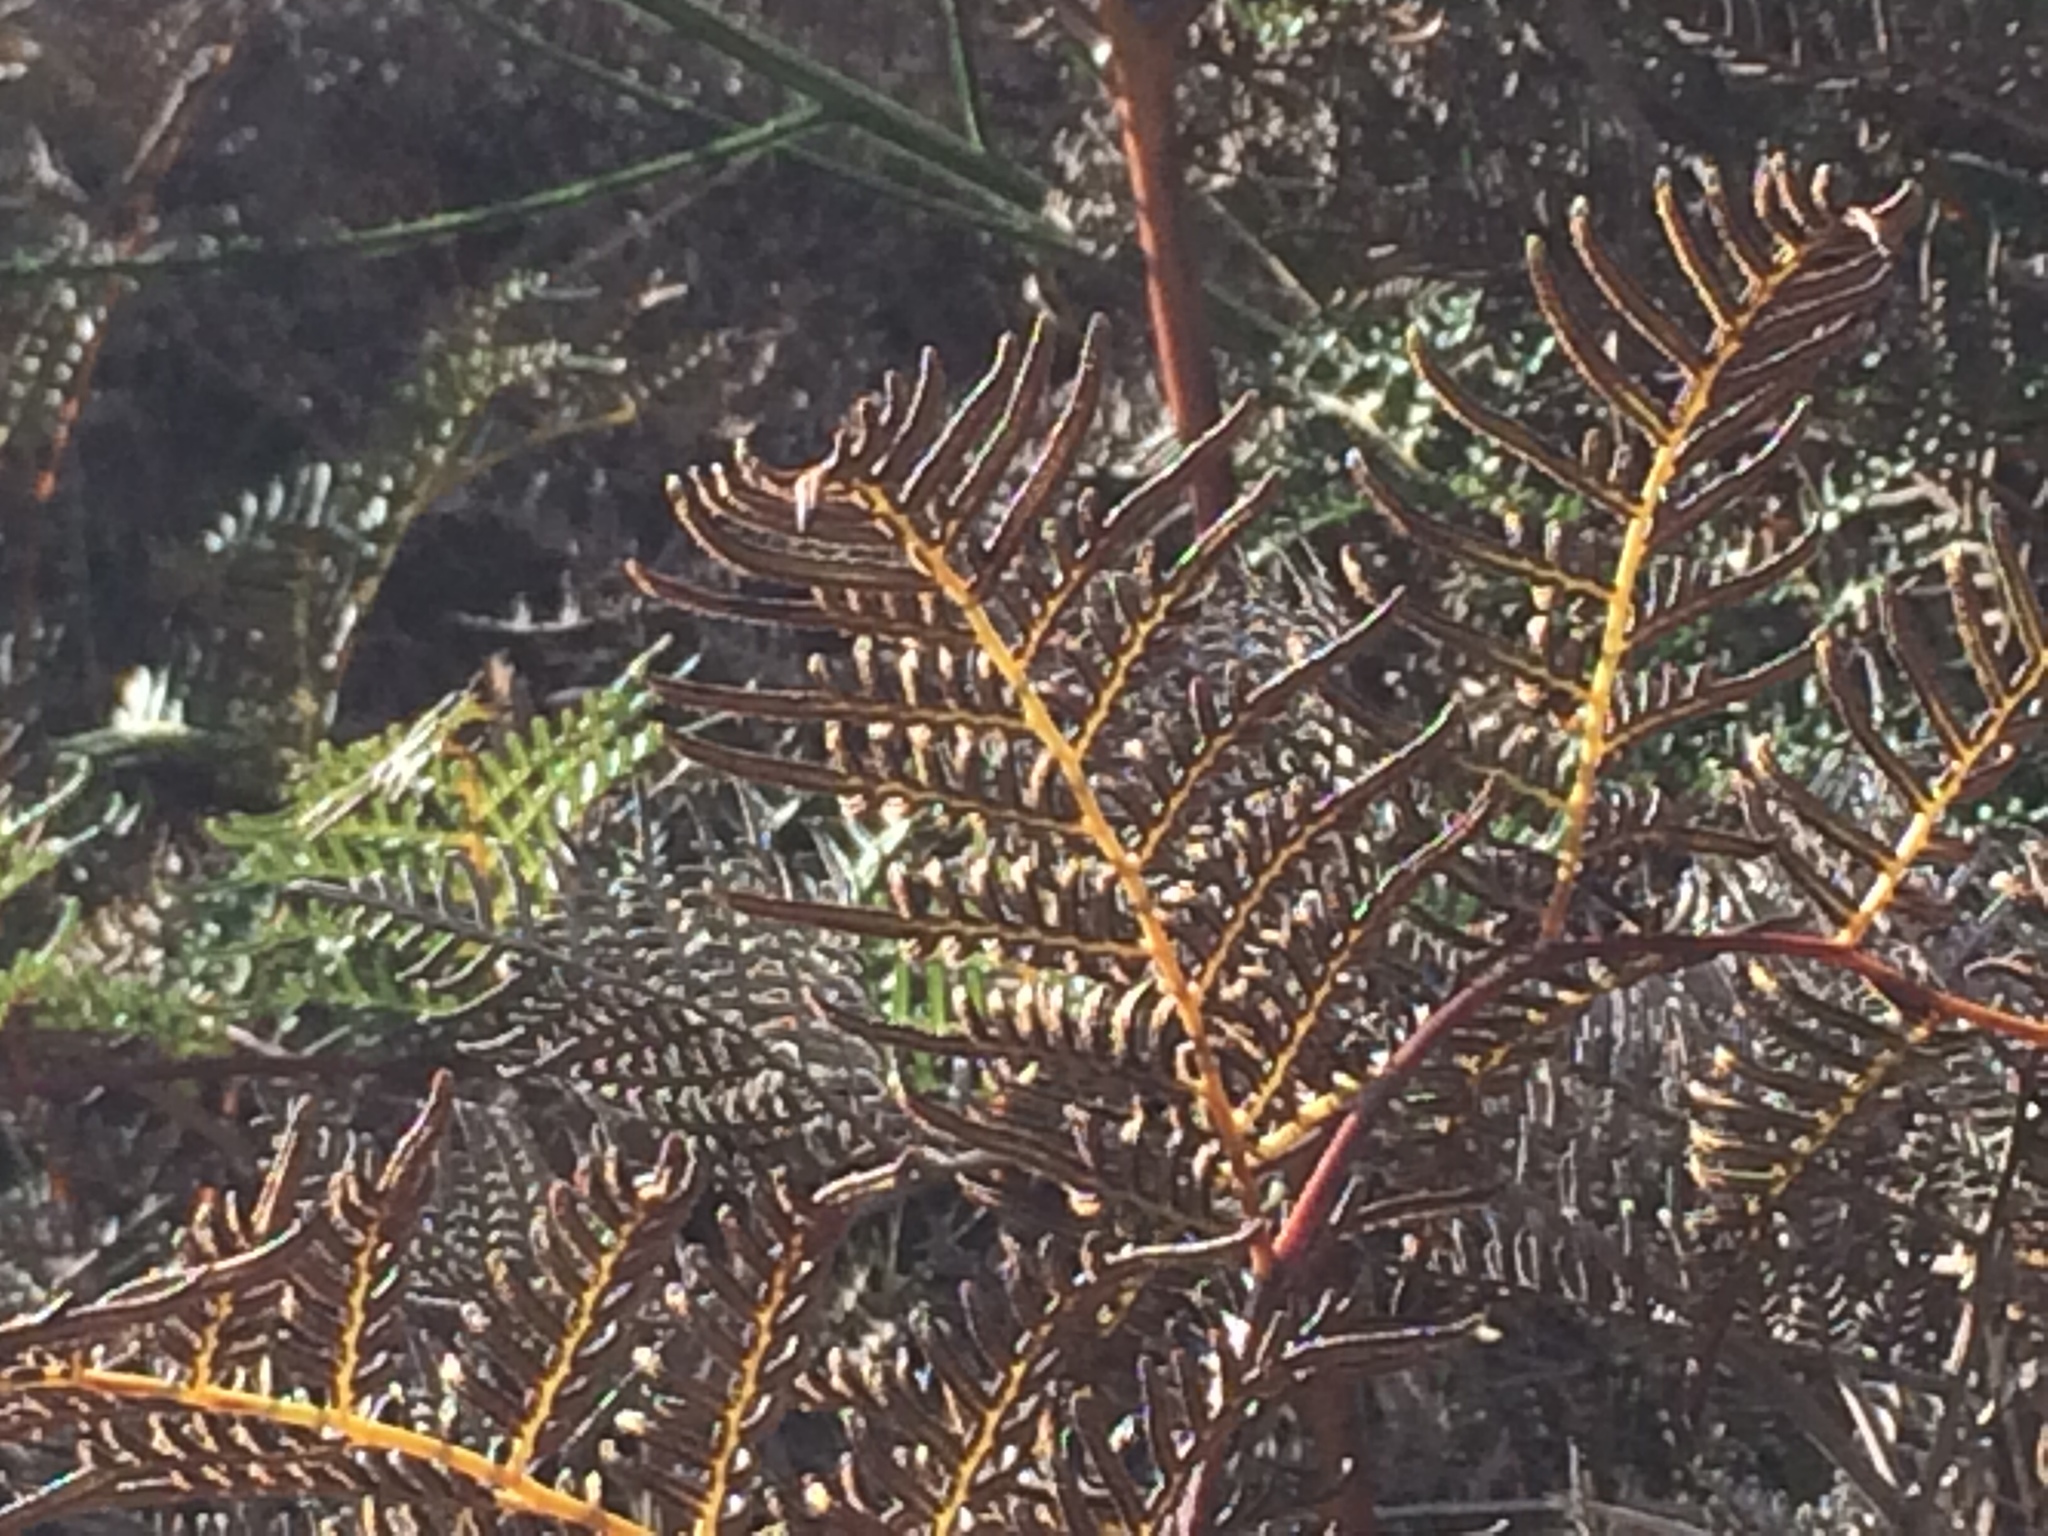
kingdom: Plantae
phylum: Tracheophyta
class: Polypodiopsida
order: Polypodiales
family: Dennstaedtiaceae
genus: Pteridium
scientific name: Pteridium esculentum
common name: Bracken fern
